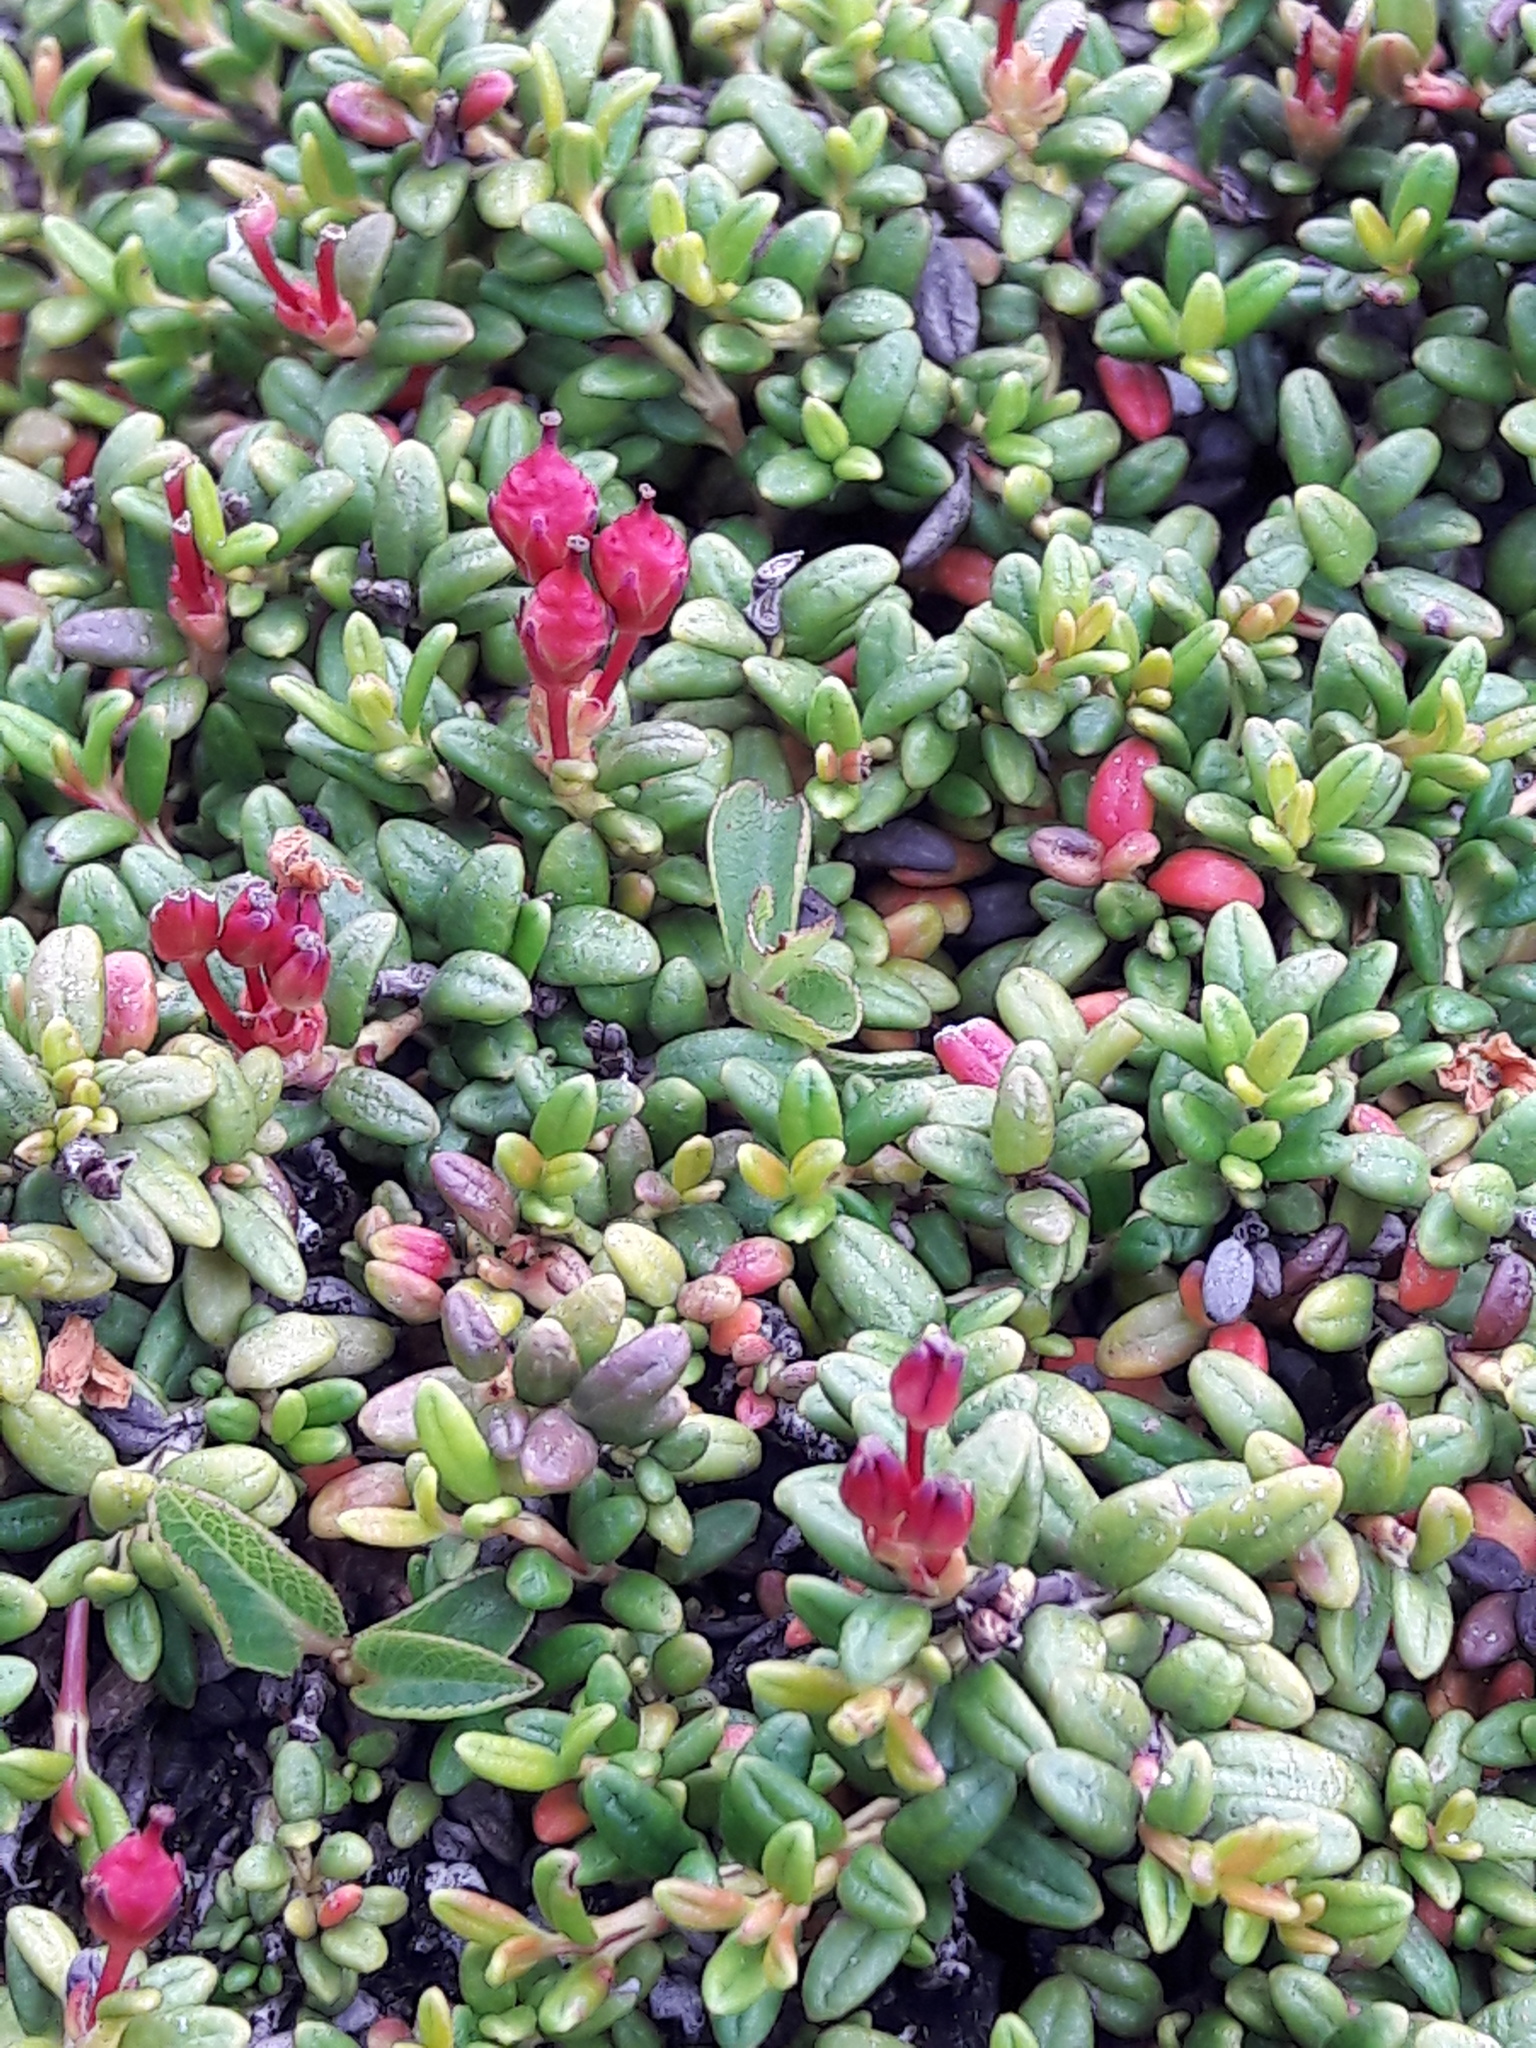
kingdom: Plantae
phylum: Tracheophyta
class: Magnoliopsida
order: Ericales
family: Ericaceae
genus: Kalmia
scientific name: Kalmia procumbens
